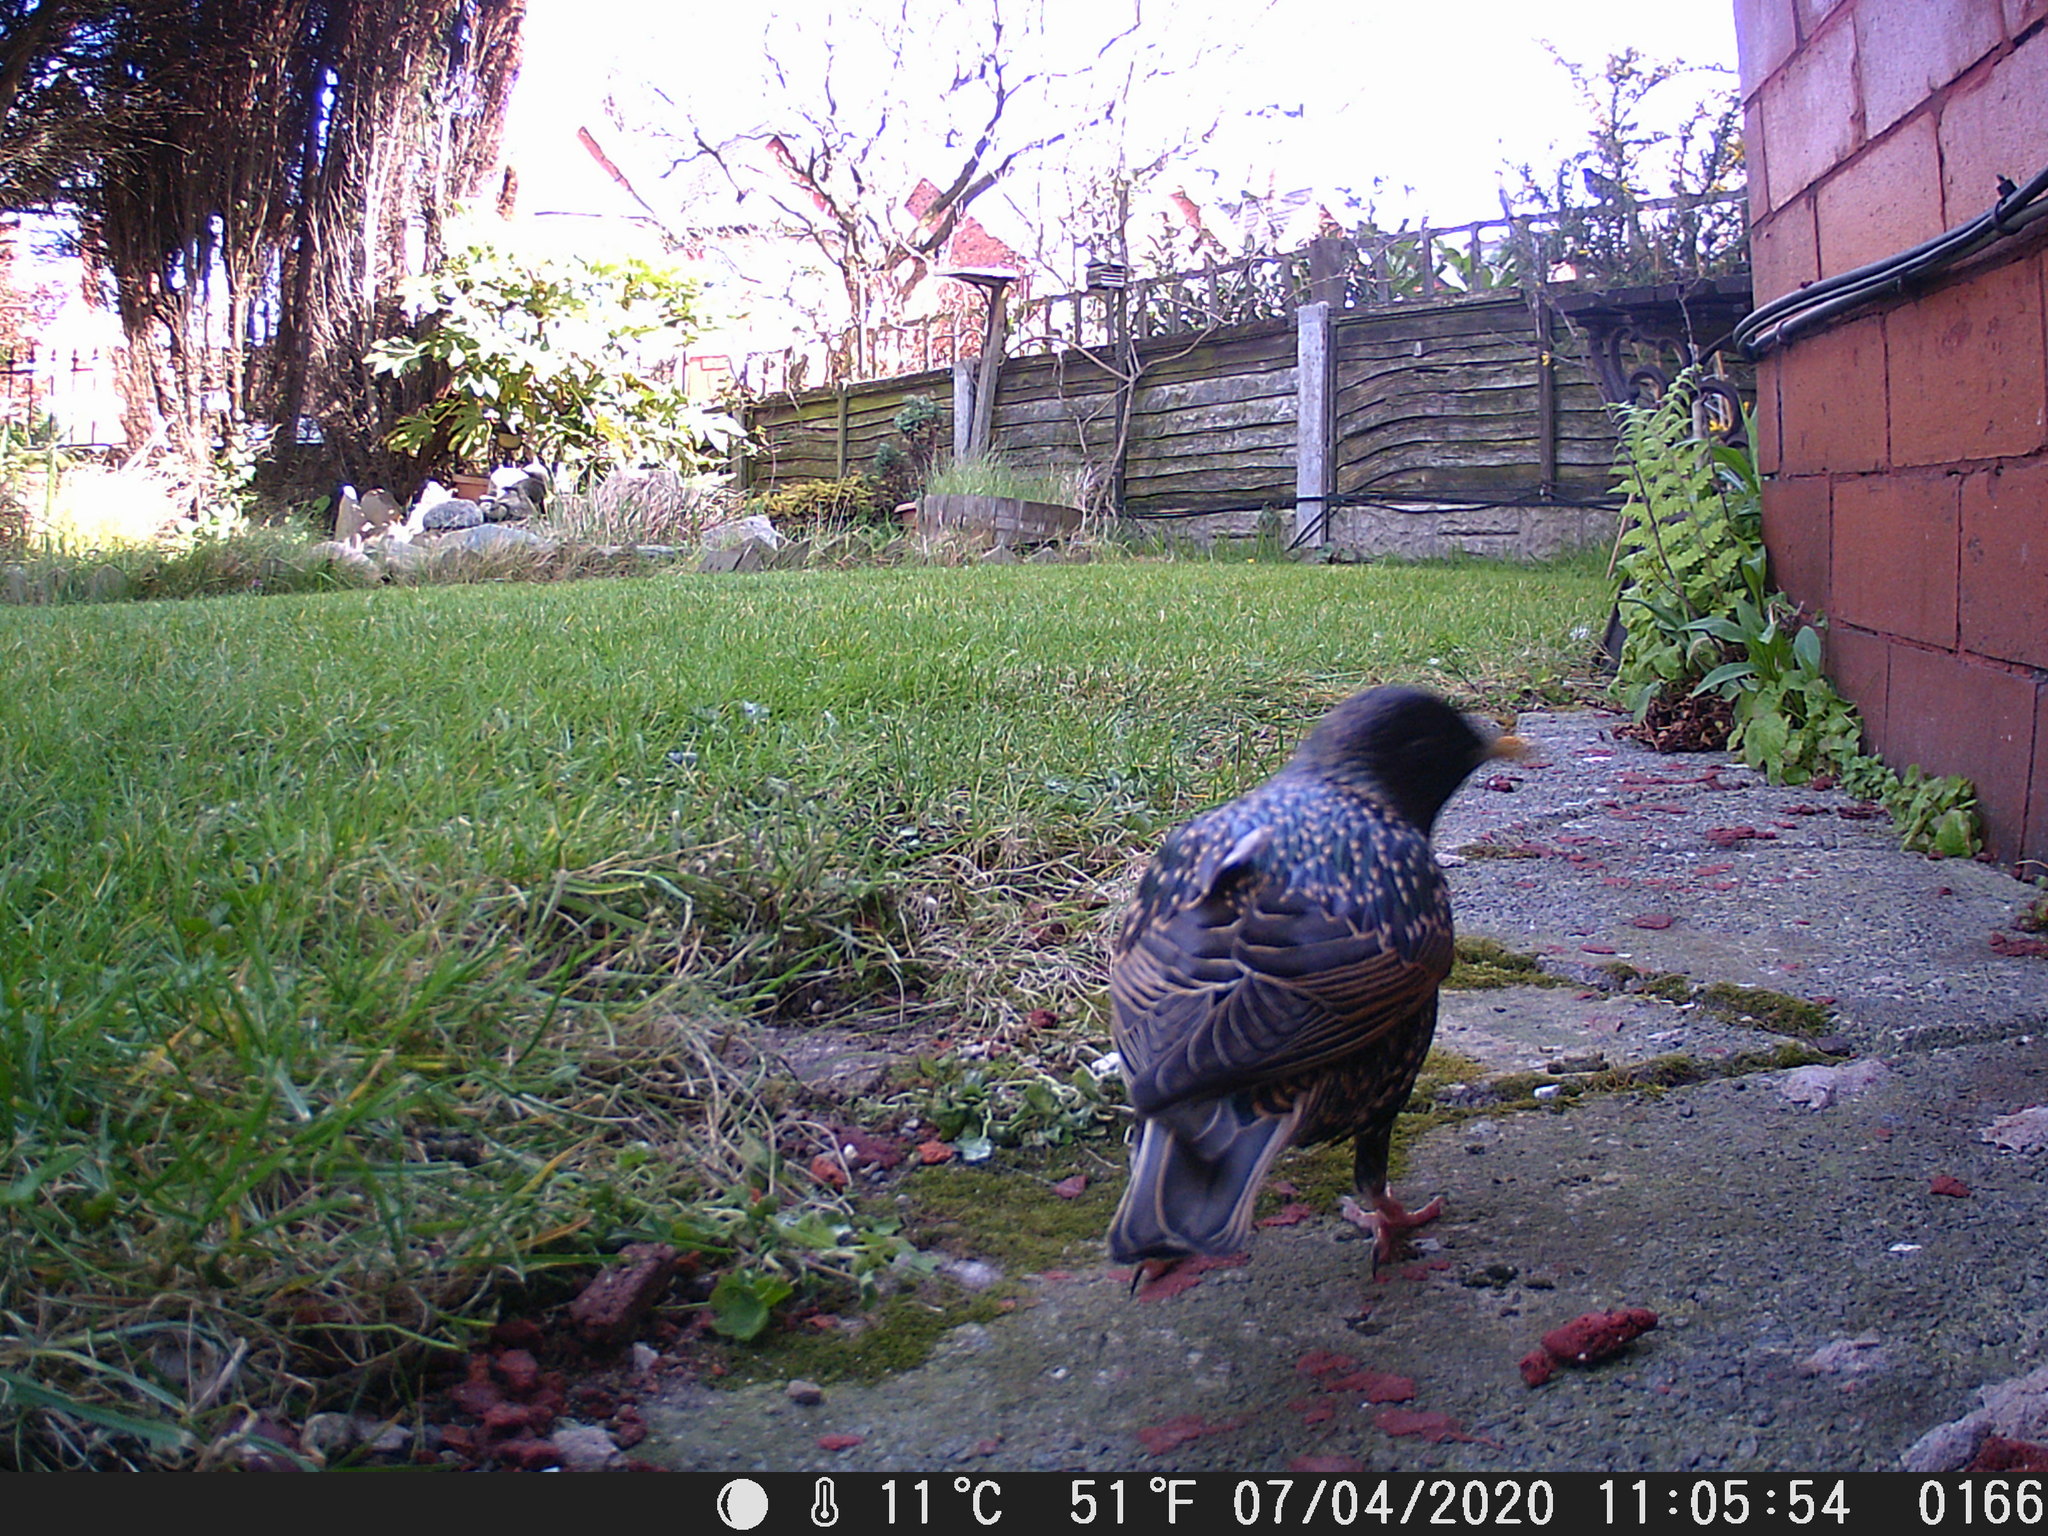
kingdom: Animalia
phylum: Chordata
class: Aves
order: Passeriformes
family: Sturnidae
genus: Sturnus
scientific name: Sturnus vulgaris
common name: Common starling
